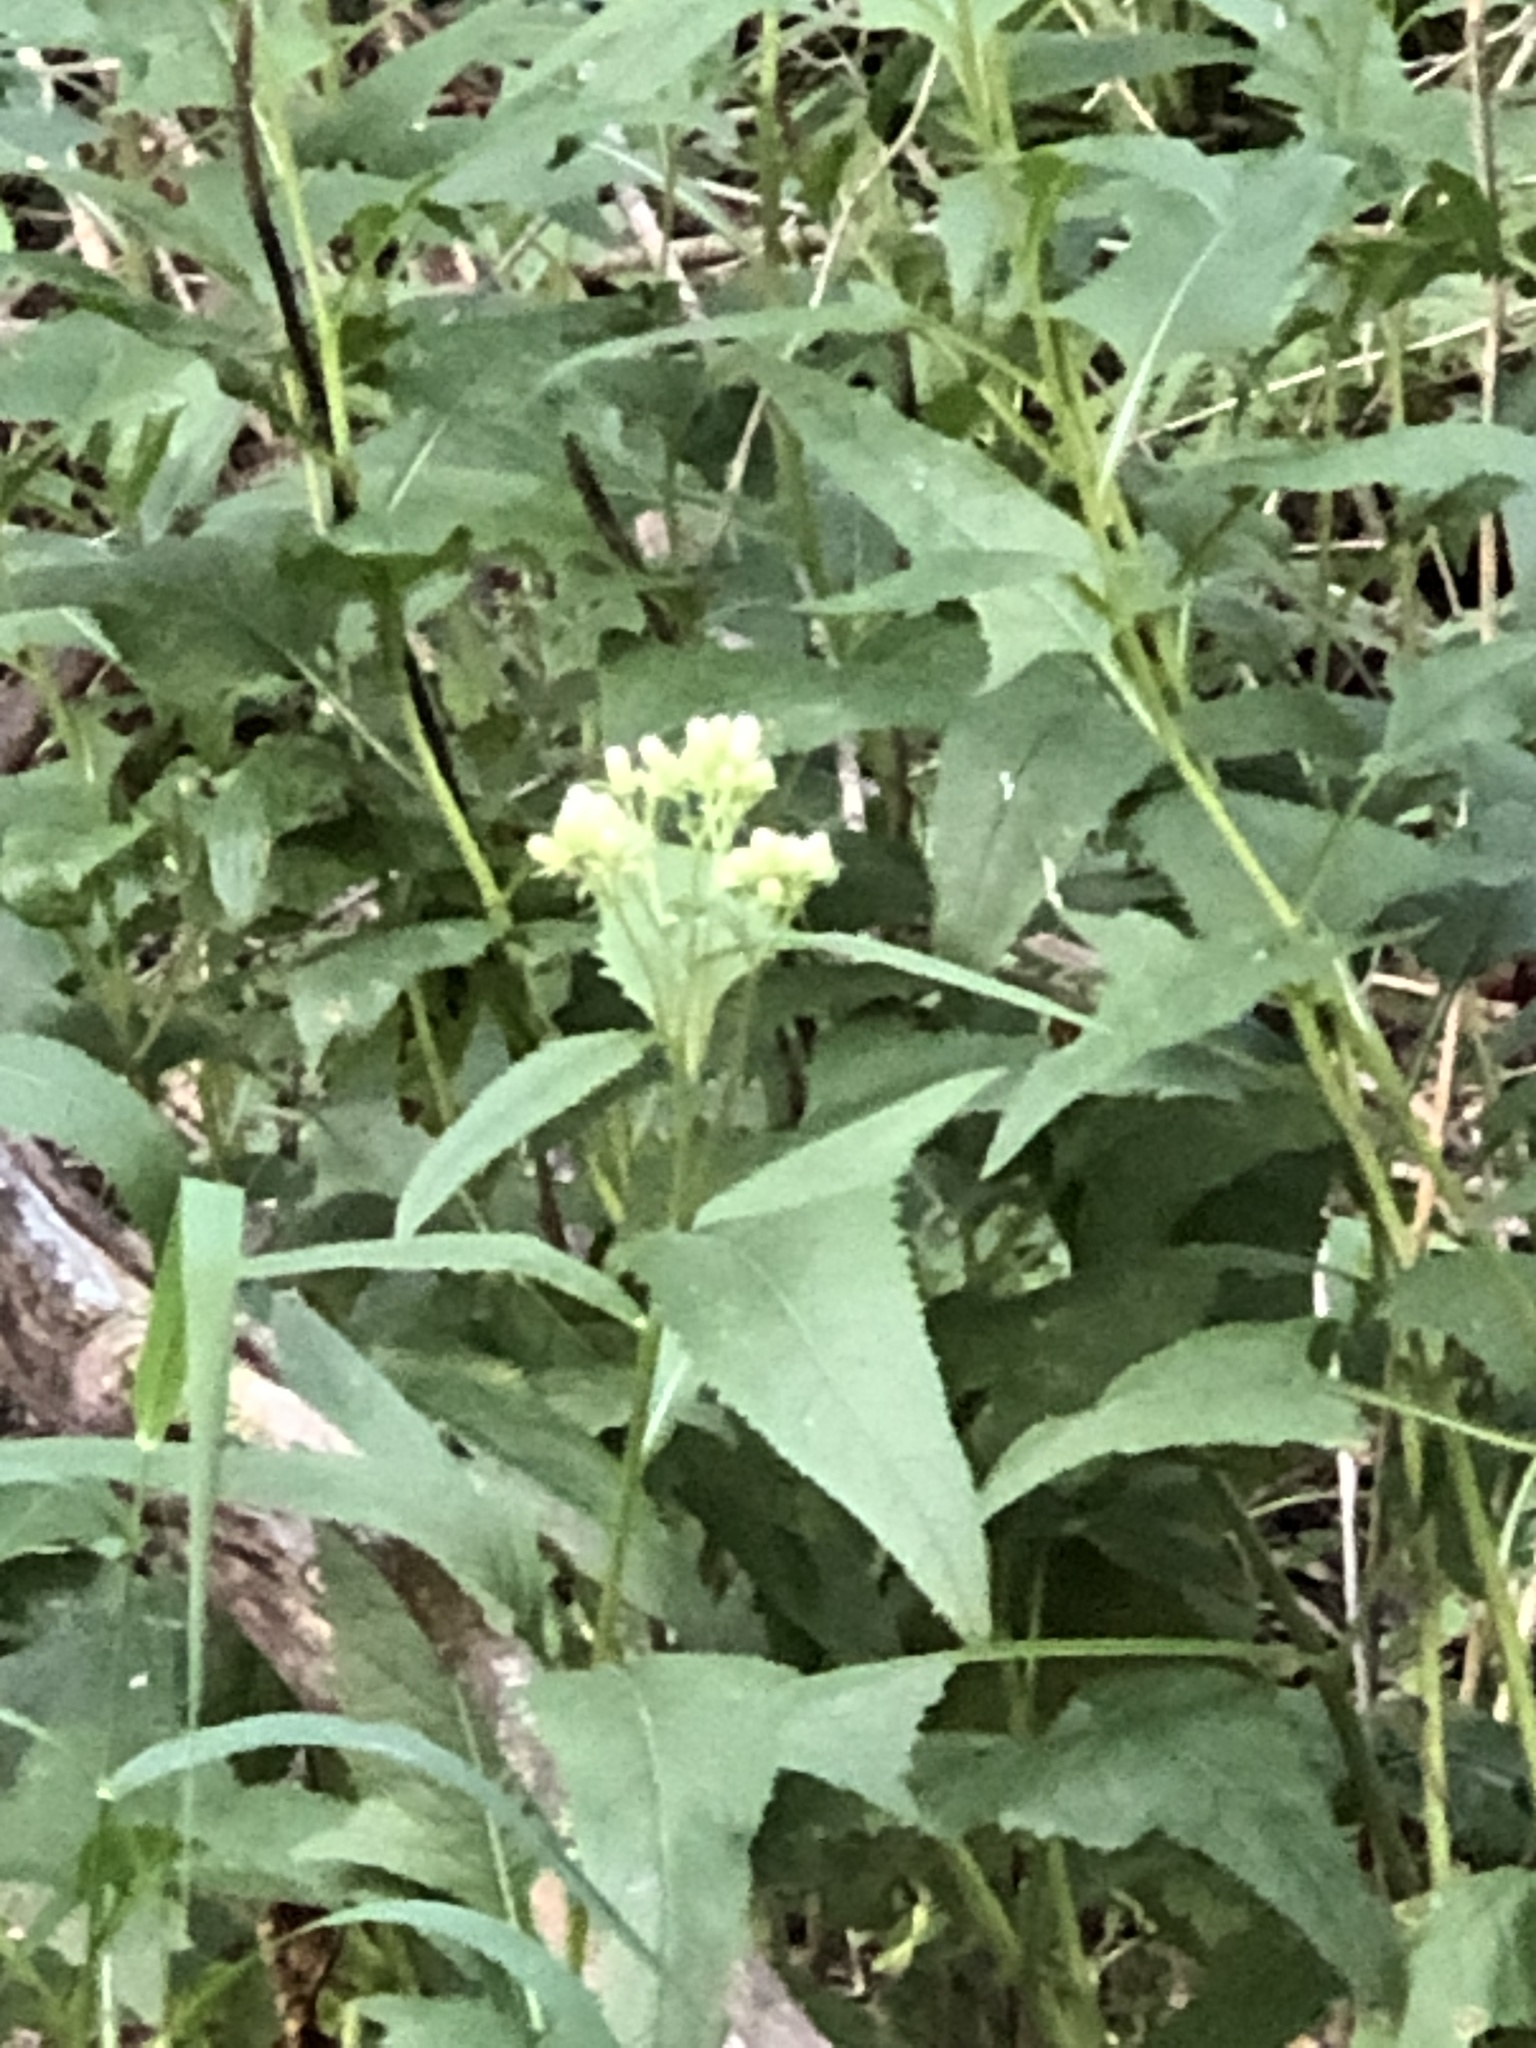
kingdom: Plantae
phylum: Tracheophyta
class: Magnoliopsida
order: Asterales
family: Asteraceae
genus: Hasteola
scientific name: Hasteola suaveolens
